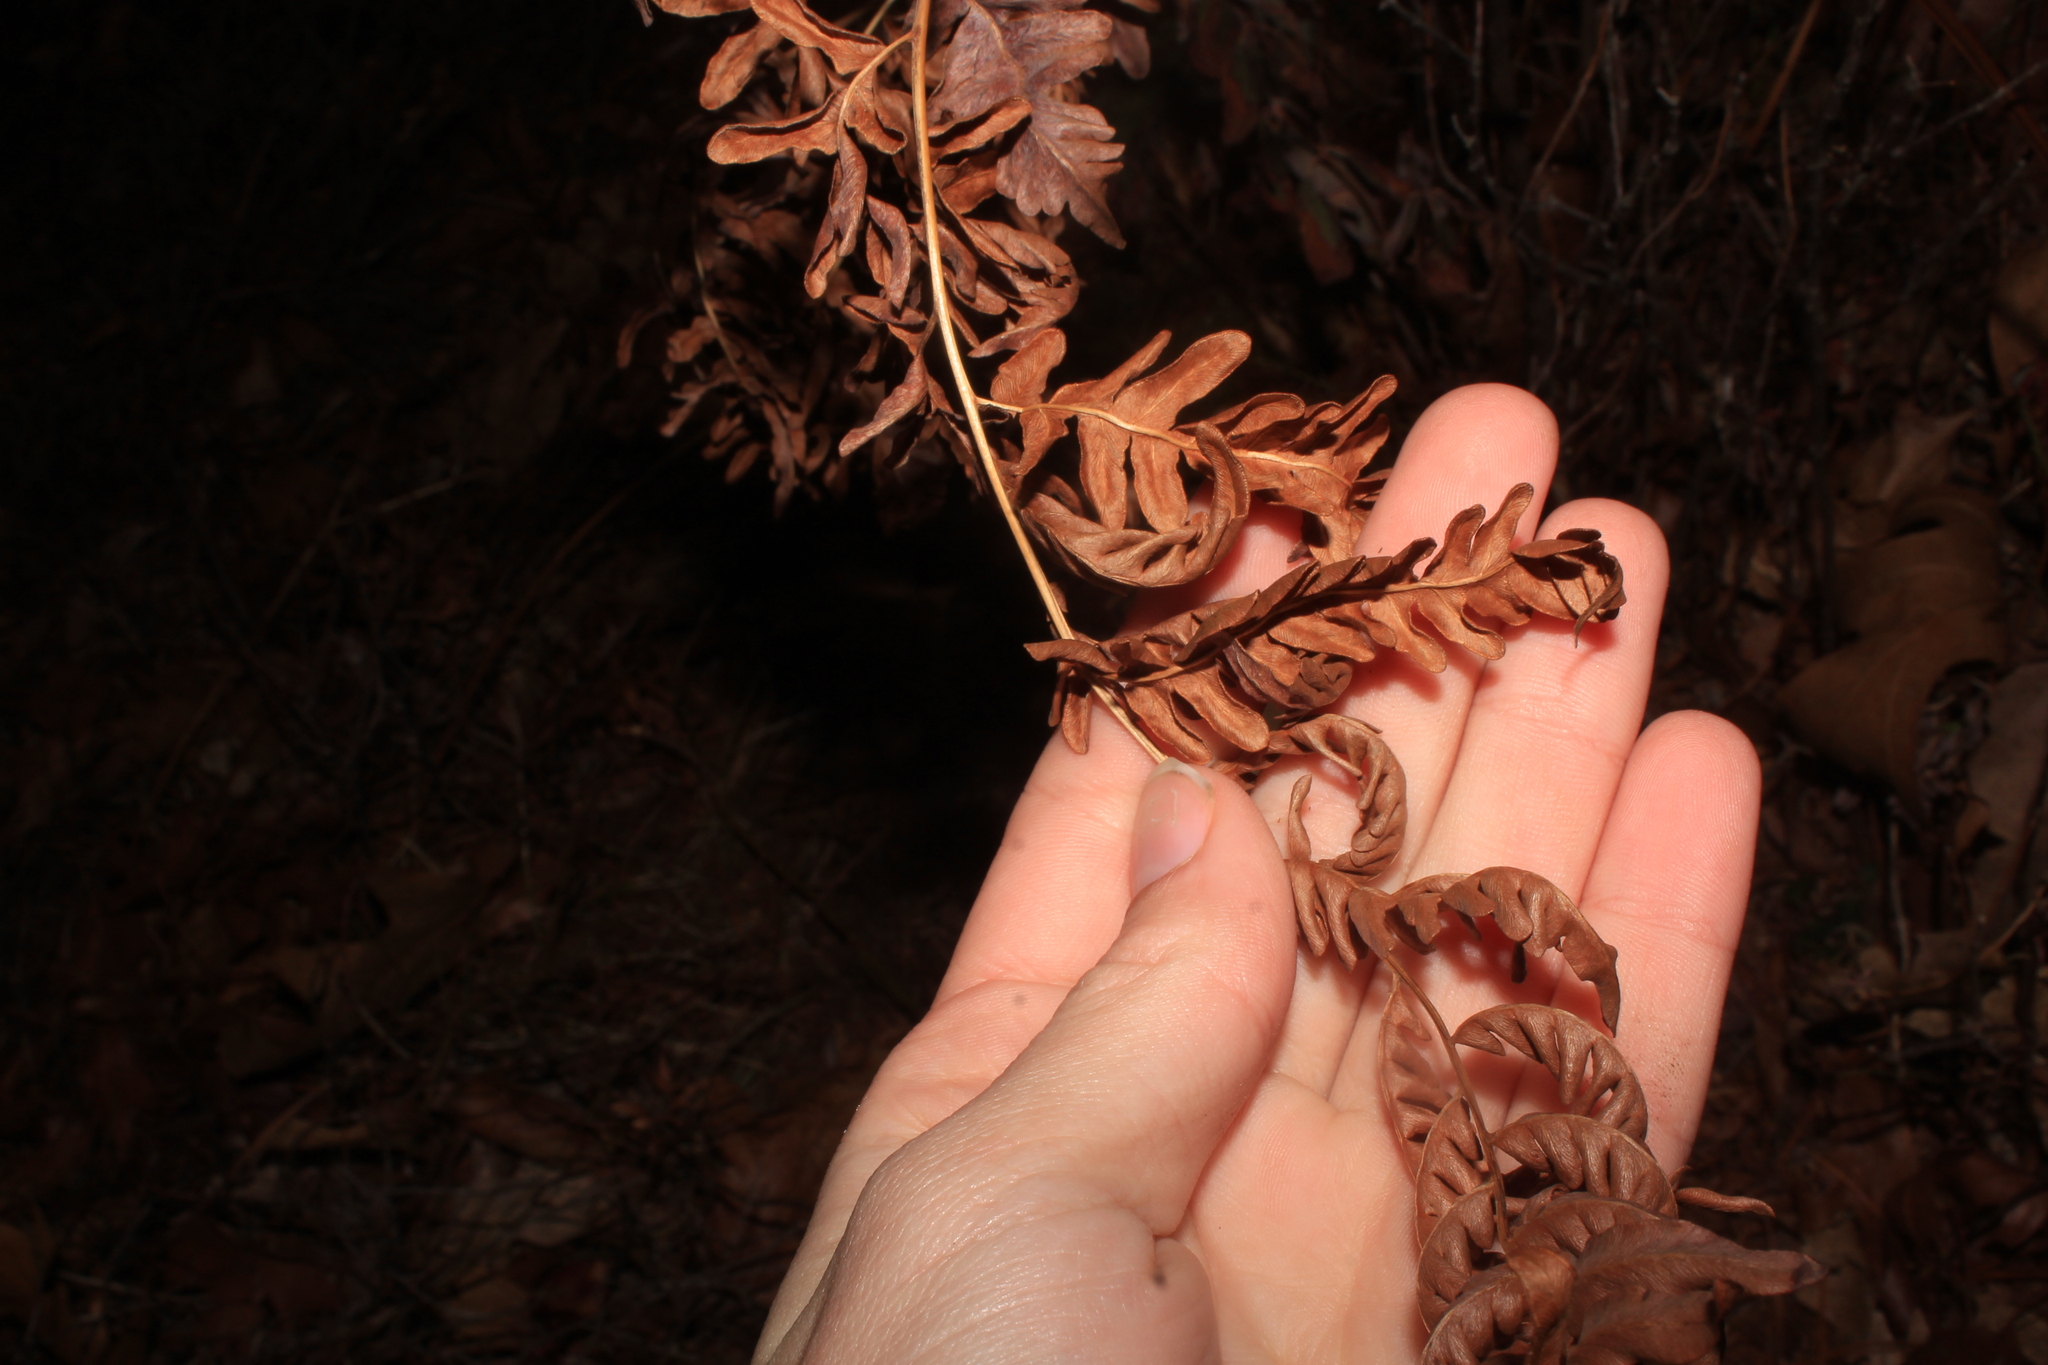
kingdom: Plantae
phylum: Tracheophyta
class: Polypodiopsida
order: Polypodiales
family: Dennstaedtiaceae
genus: Pteridium
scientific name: Pteridium aquilinum
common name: Bracken
